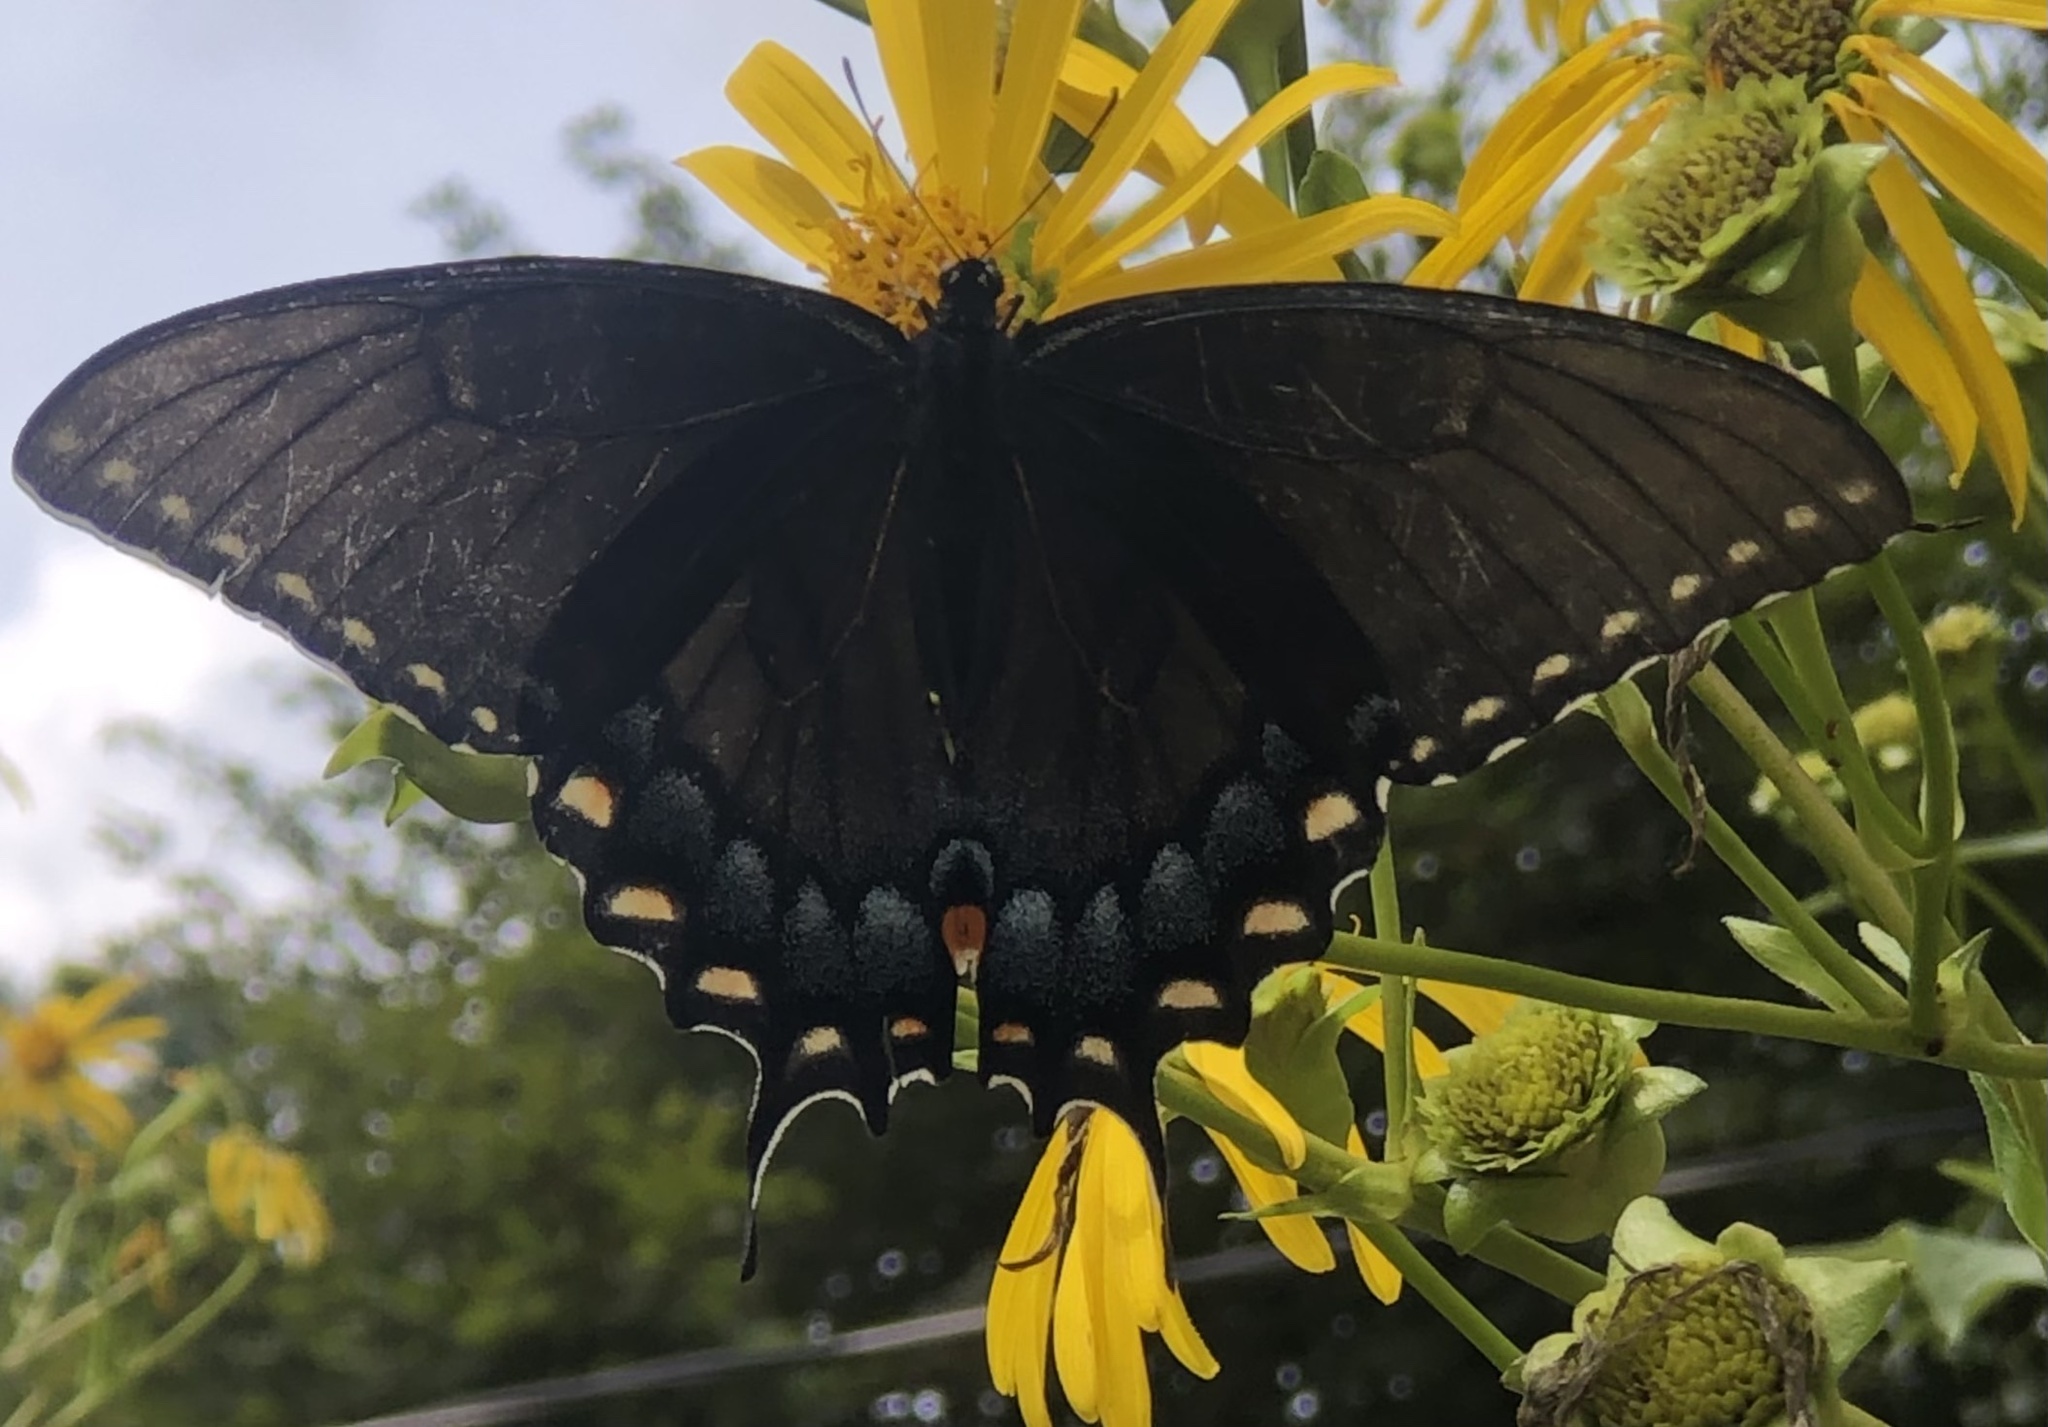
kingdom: Animalia
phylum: Arthropoda
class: Insecta
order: Lepidoptera
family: Papilionidae
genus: Papilio
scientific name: Papilio glaucus
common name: Tiger swallowtail
